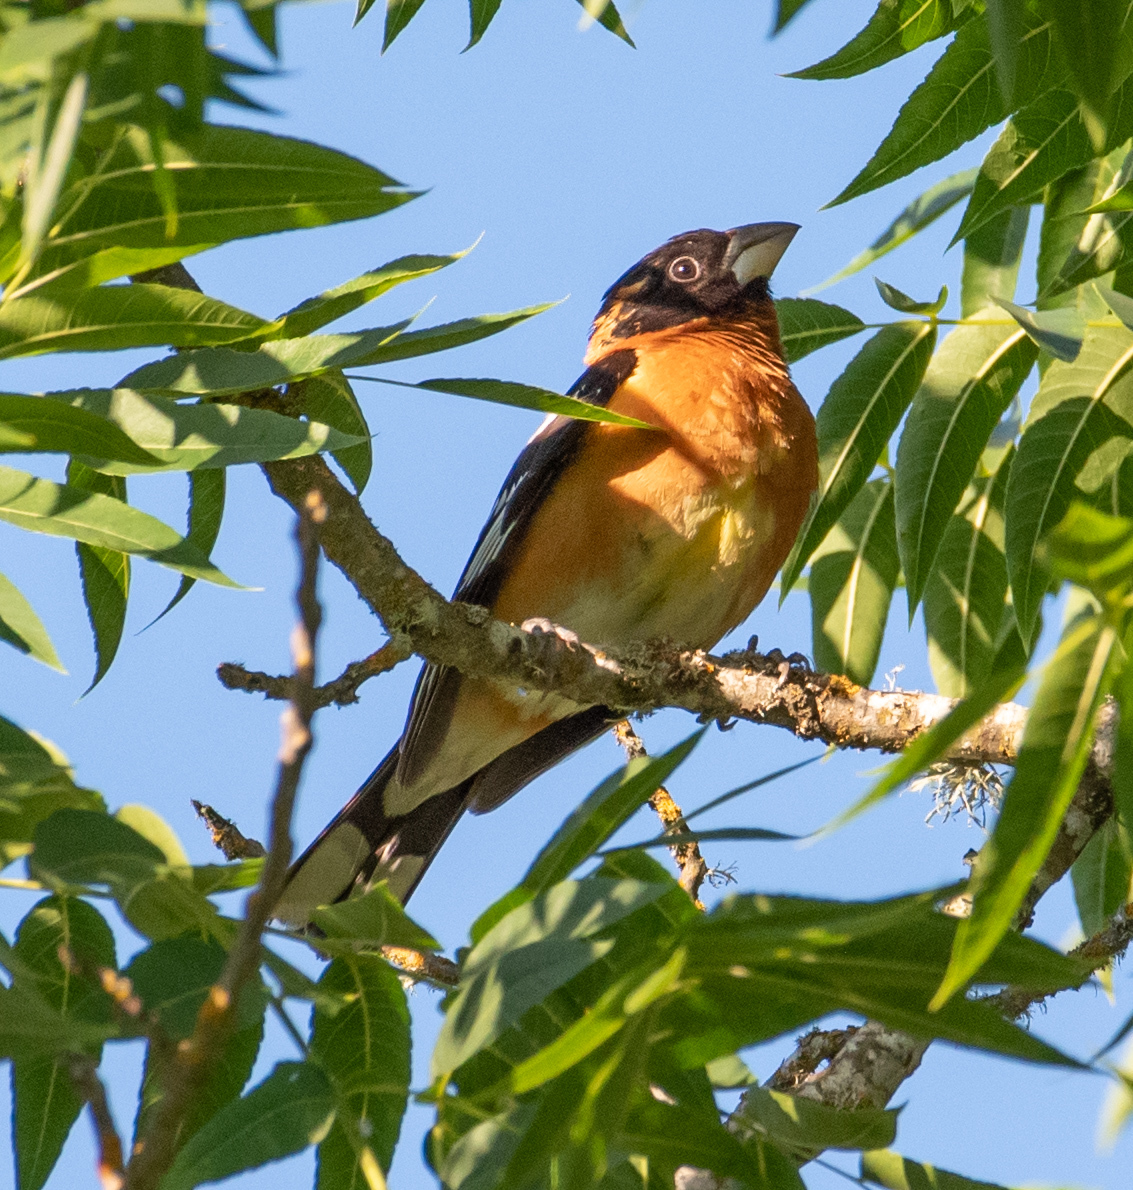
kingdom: Animalia
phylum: Chordata
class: Aves
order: Passeriformes
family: Cardinalidae
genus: Pheucticus
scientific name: Pheucticus melanocephalus
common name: Black-headed grosbeak
